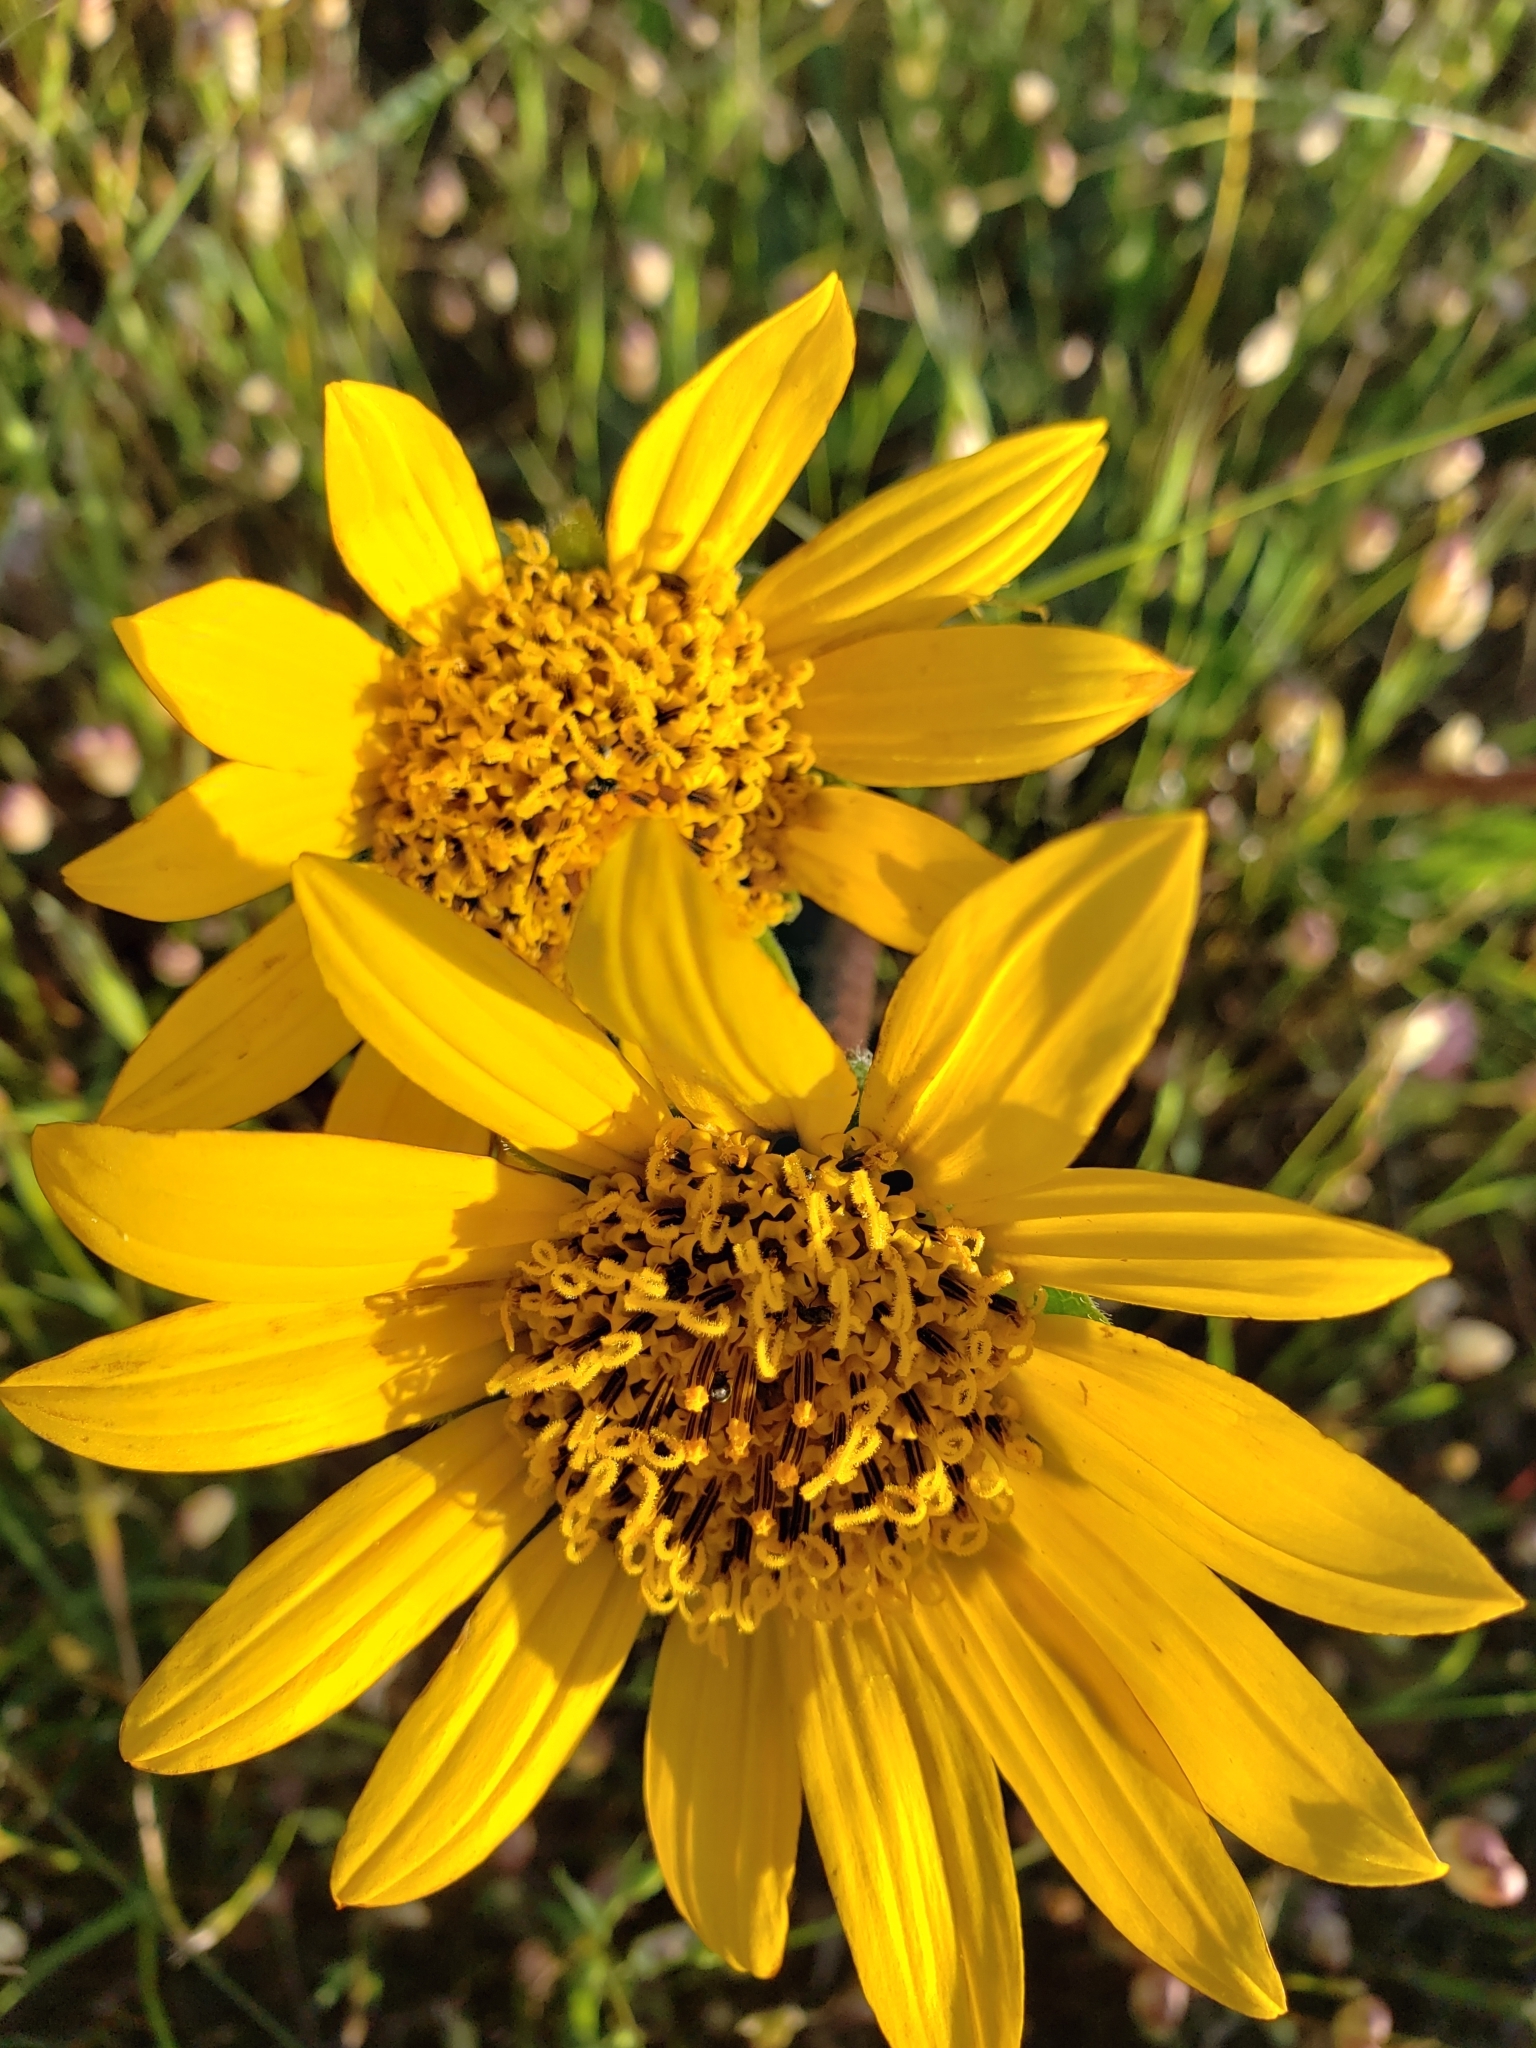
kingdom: Plantae
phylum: Tracheophyta
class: Magnoliopsida
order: Asterales
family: Asteraceae
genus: Wyethia
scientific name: Wyethia angustifolia
